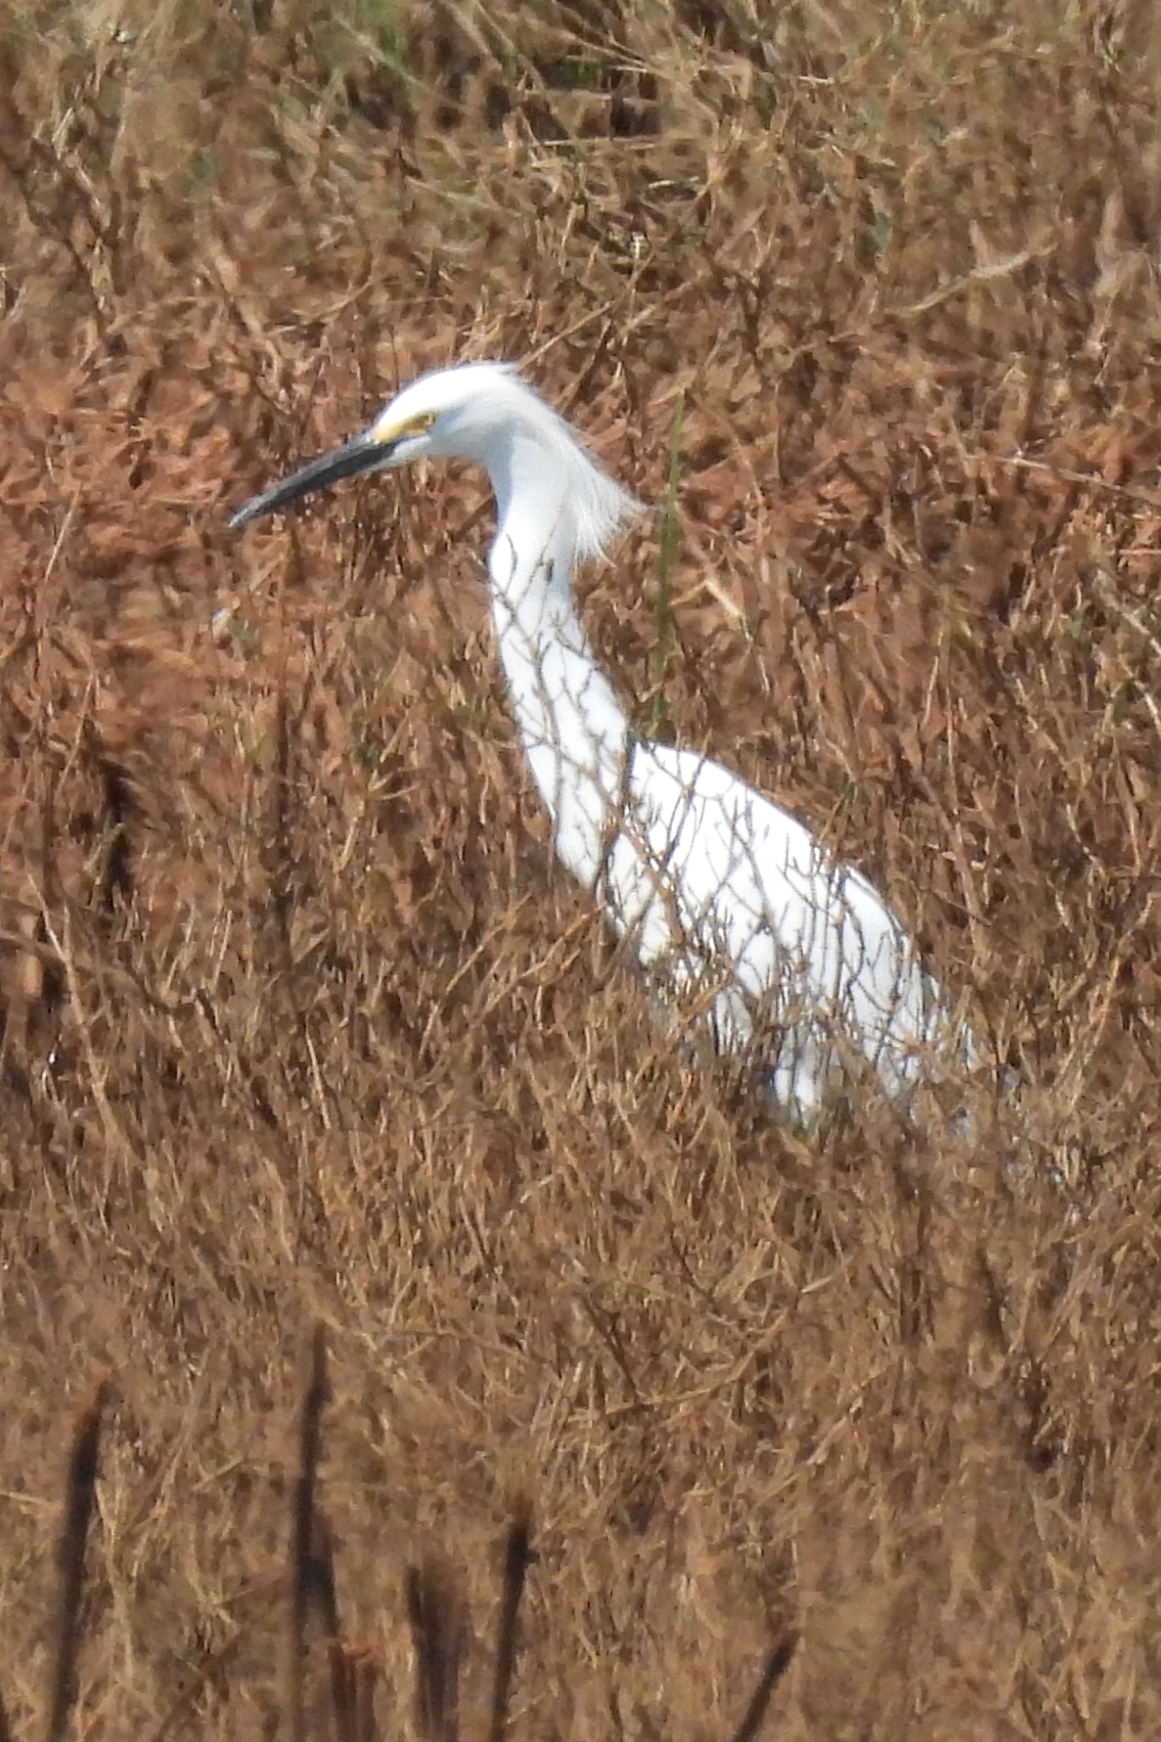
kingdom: Animalia
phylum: Chordata
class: Aves
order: Pelecaniformes
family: Ardeidae
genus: Egretta
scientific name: Egretta thula
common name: Snowy egret
